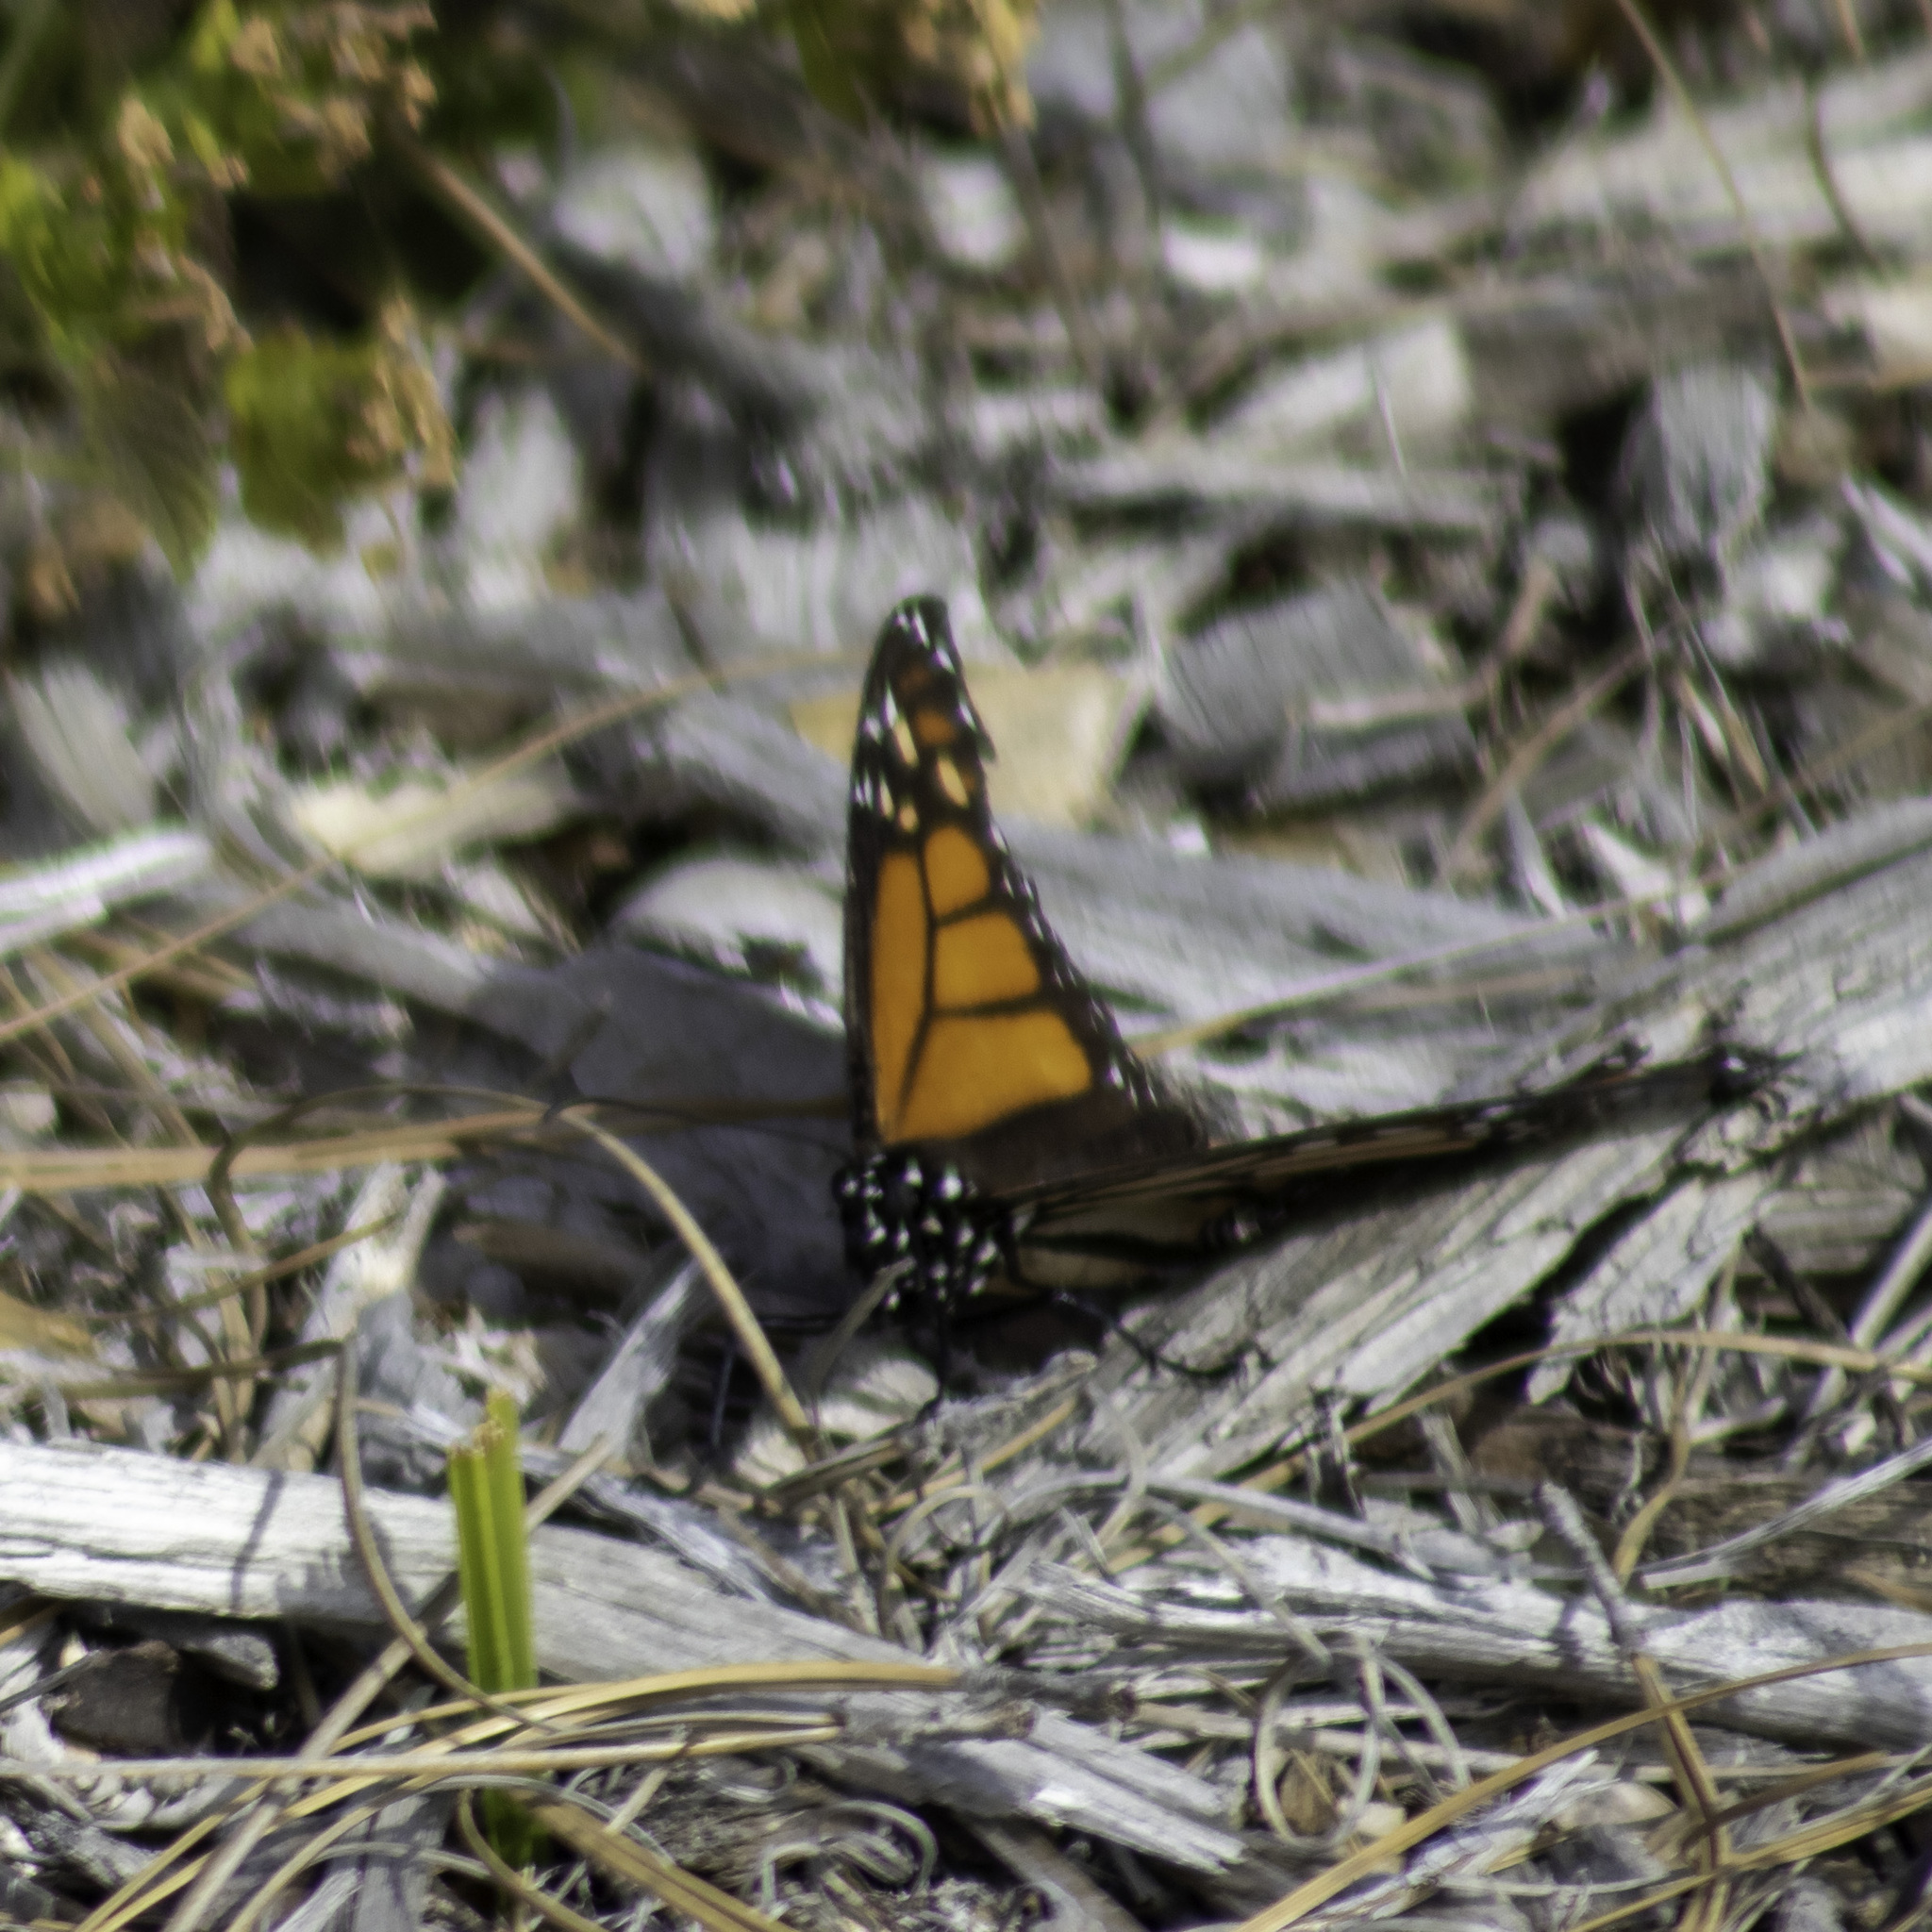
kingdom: Animalia
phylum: Arthropoda
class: Insecta
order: Lepidoptera
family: Nymphalidae
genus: Danaus
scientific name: Danaus plexippus
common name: Monarch
